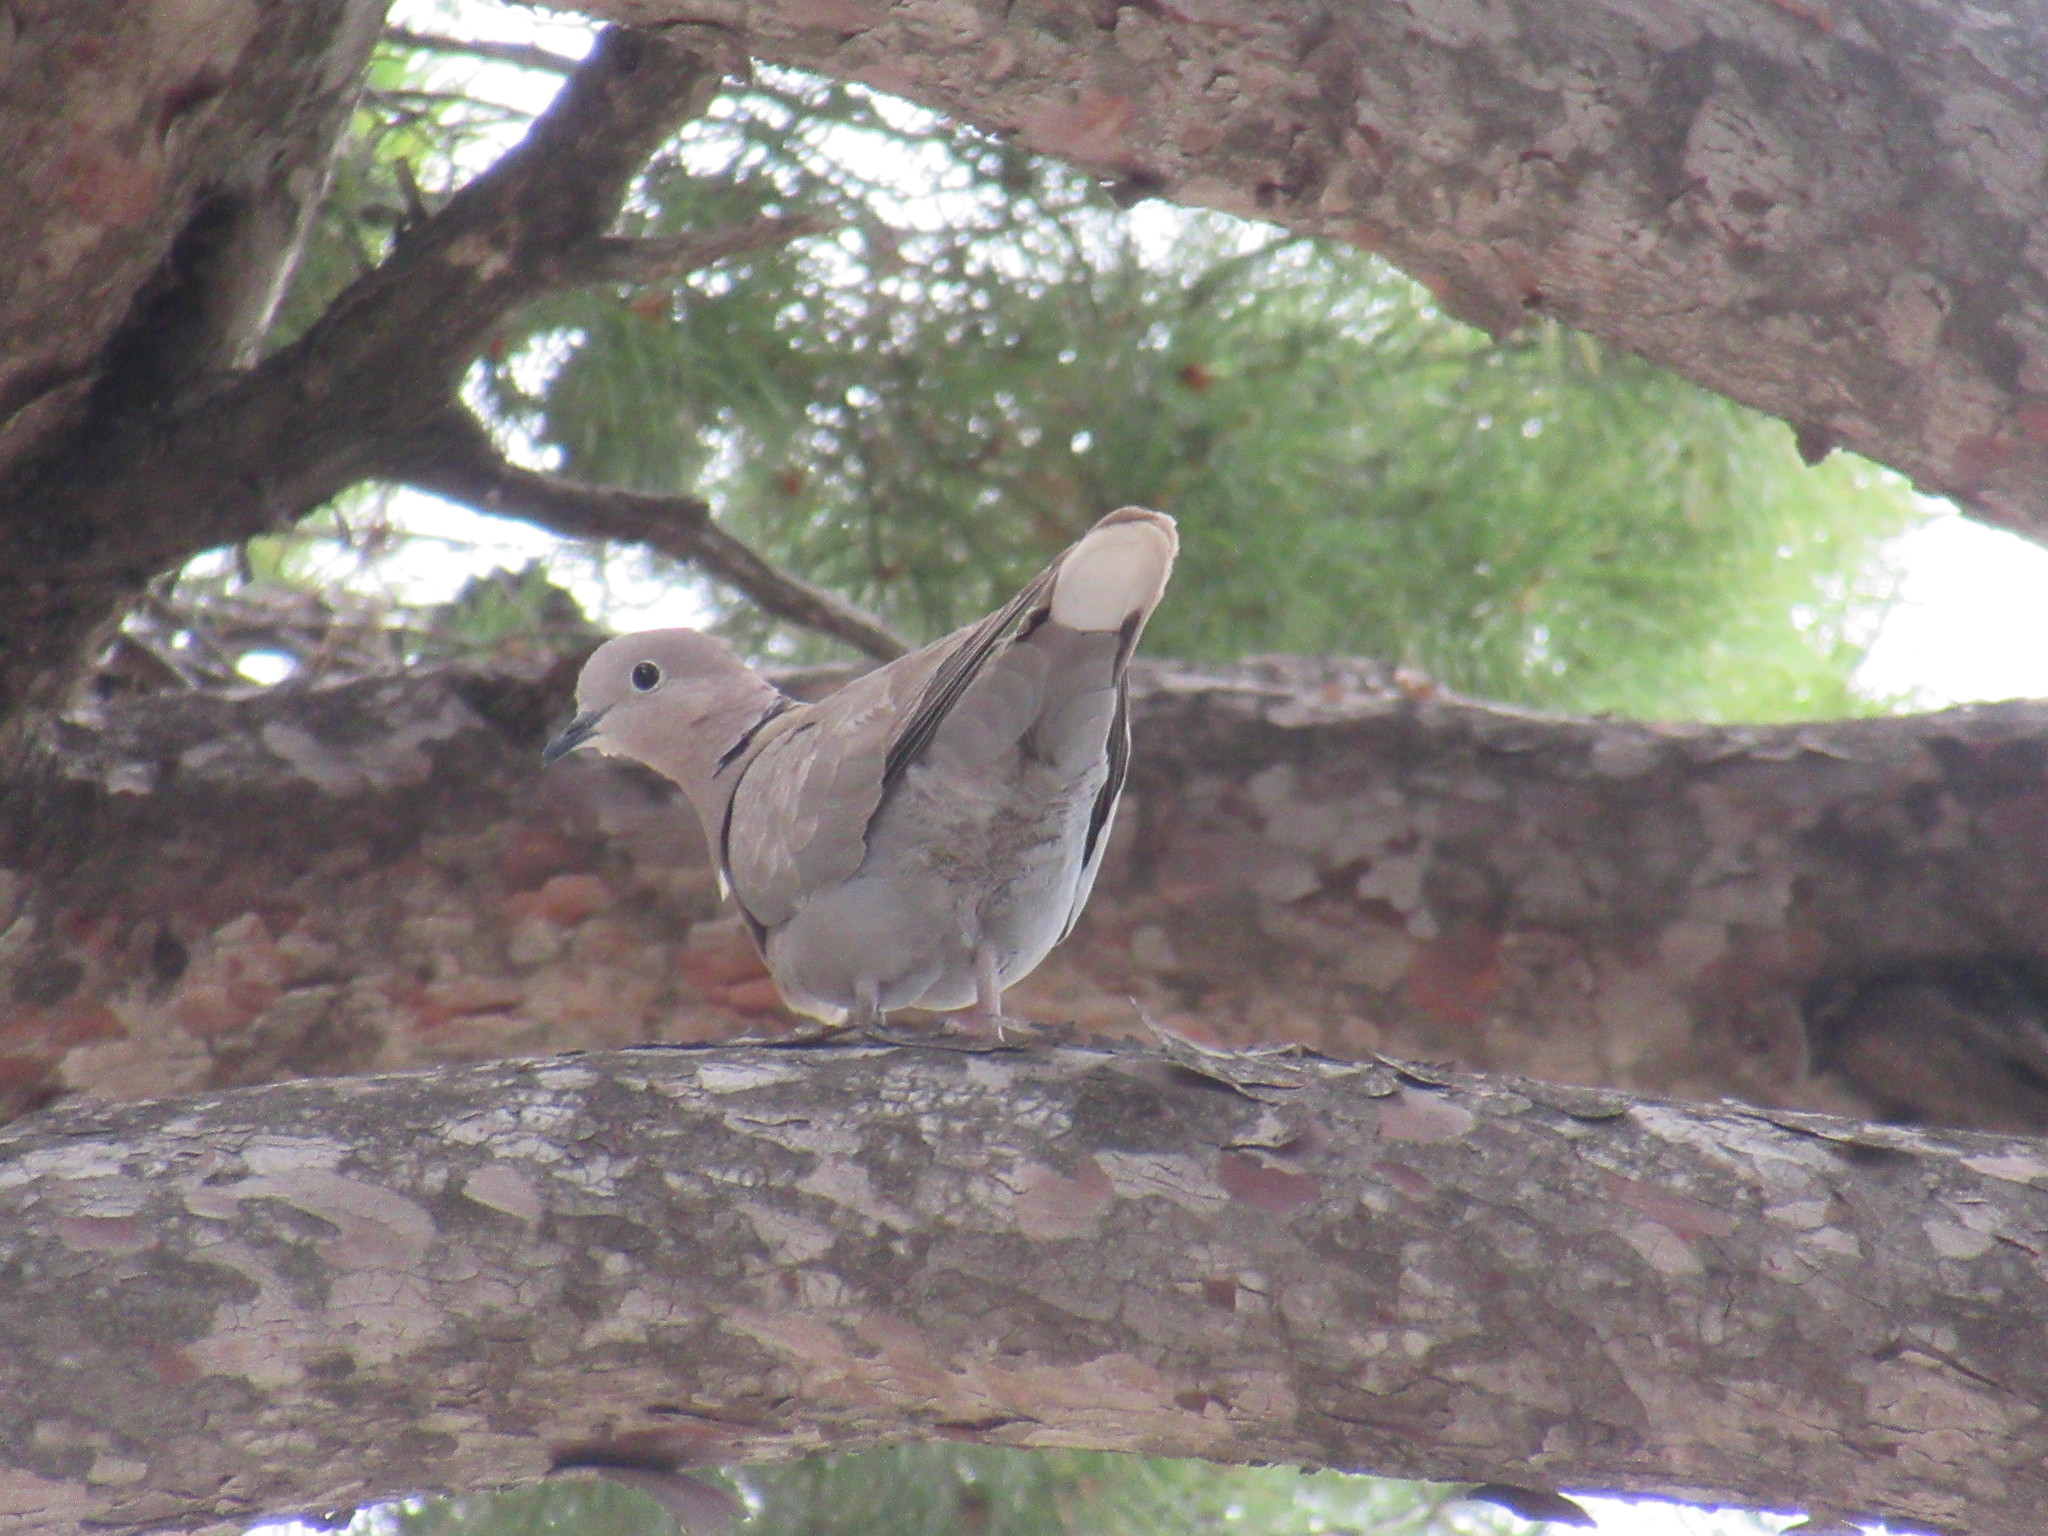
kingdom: Animalia
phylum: Chordata
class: Aves
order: Columbiformes
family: Columbidae
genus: Streptopelia
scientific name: Streptopelia decaocto
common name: Eurasian collared dove
